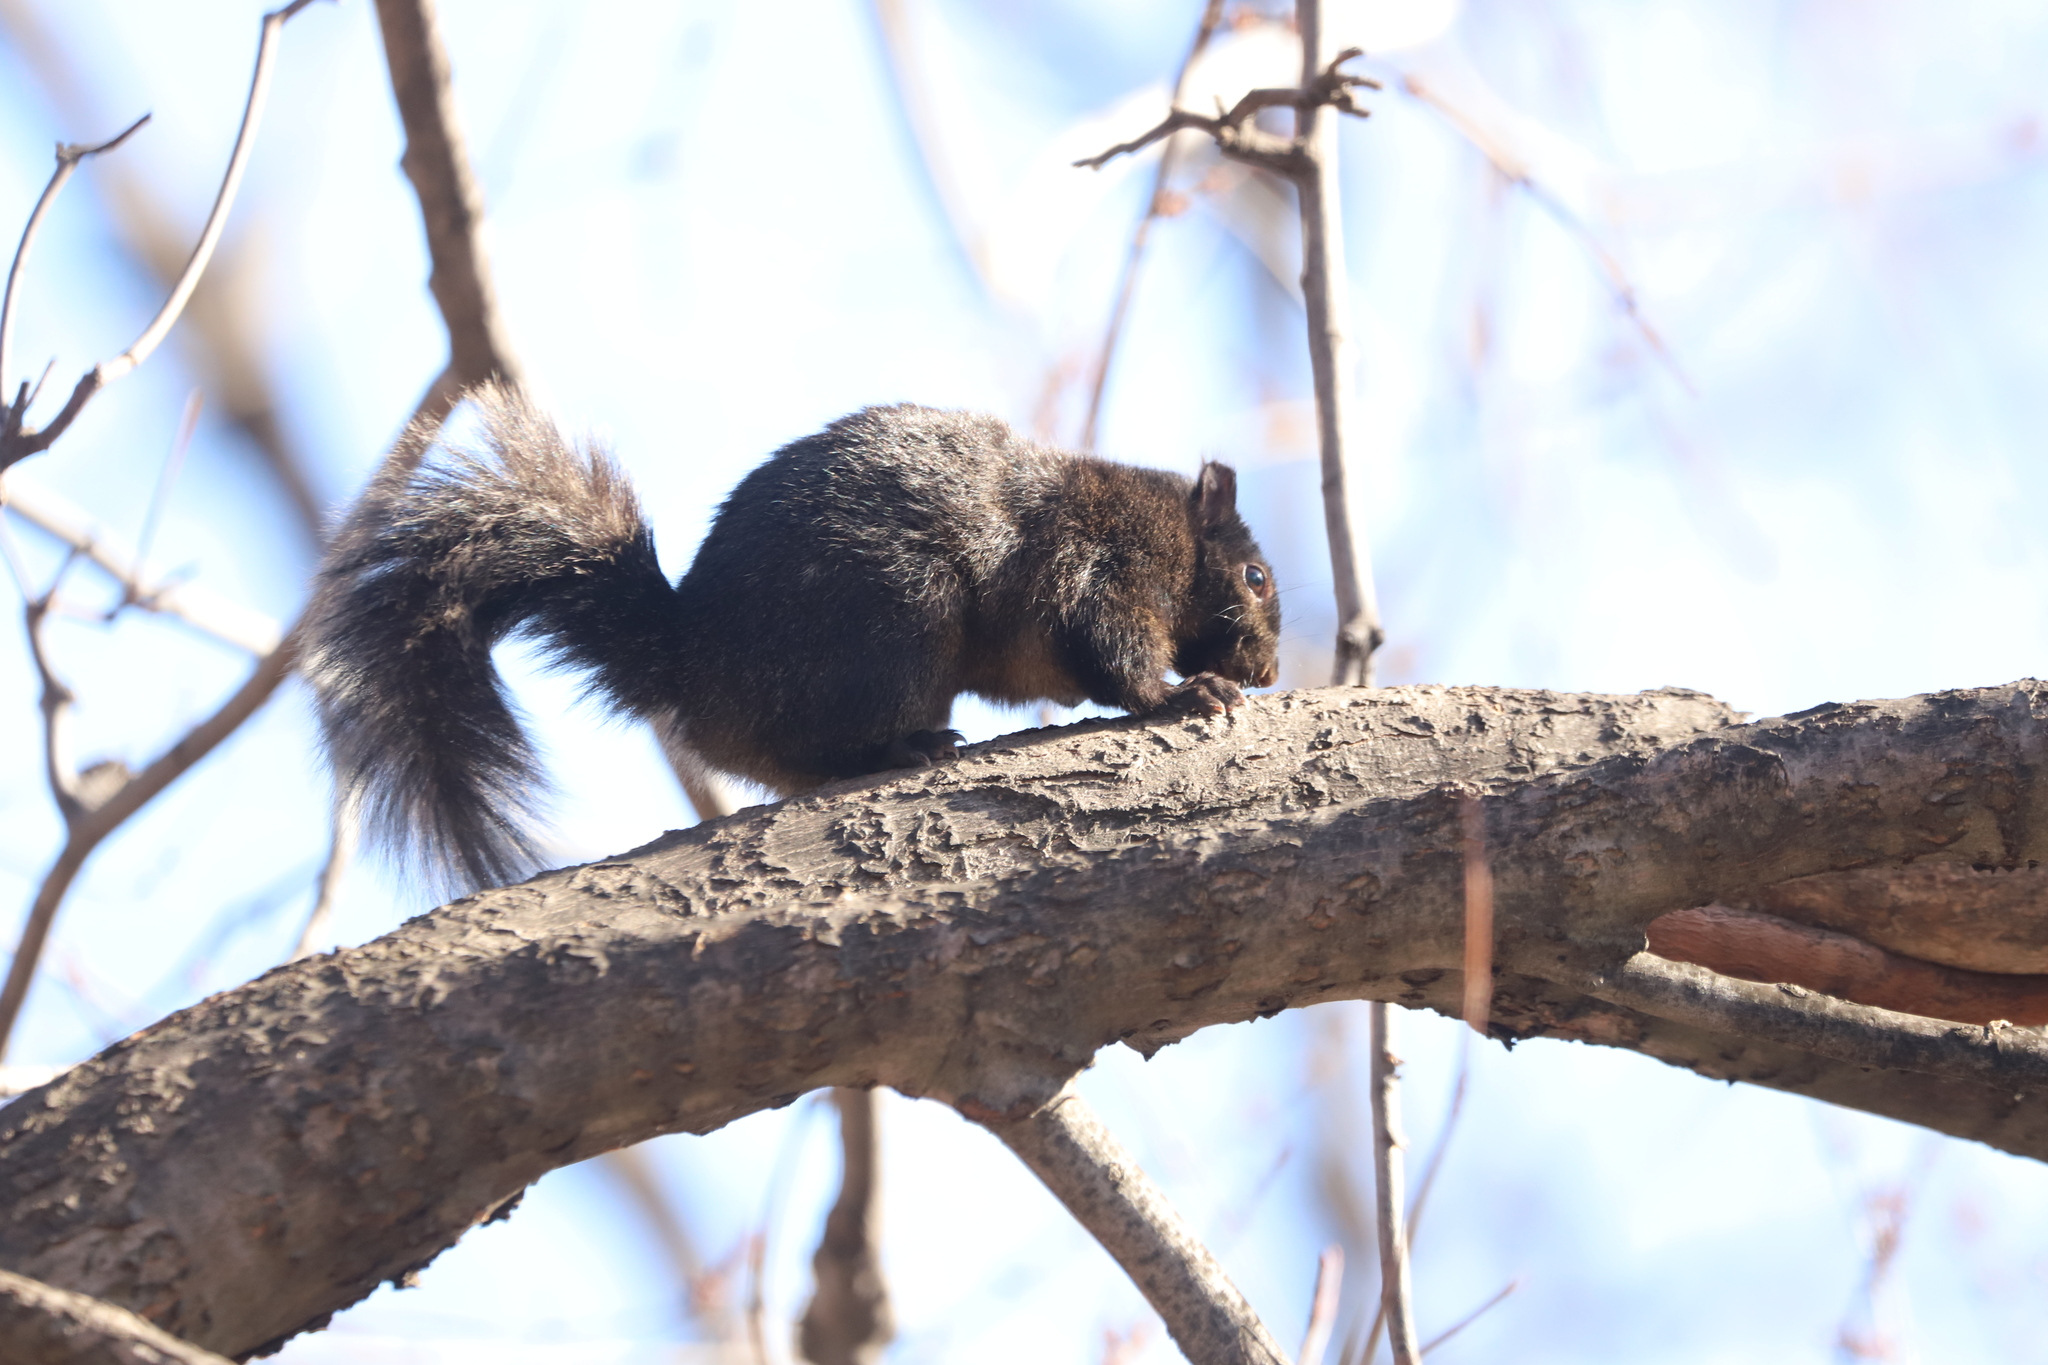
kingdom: Animalia
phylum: Chordata
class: Mammalia
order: Rodentia
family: Sciuridae
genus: Sciurus
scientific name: Sciurus carolinensis
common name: Eastern gray squirrel
